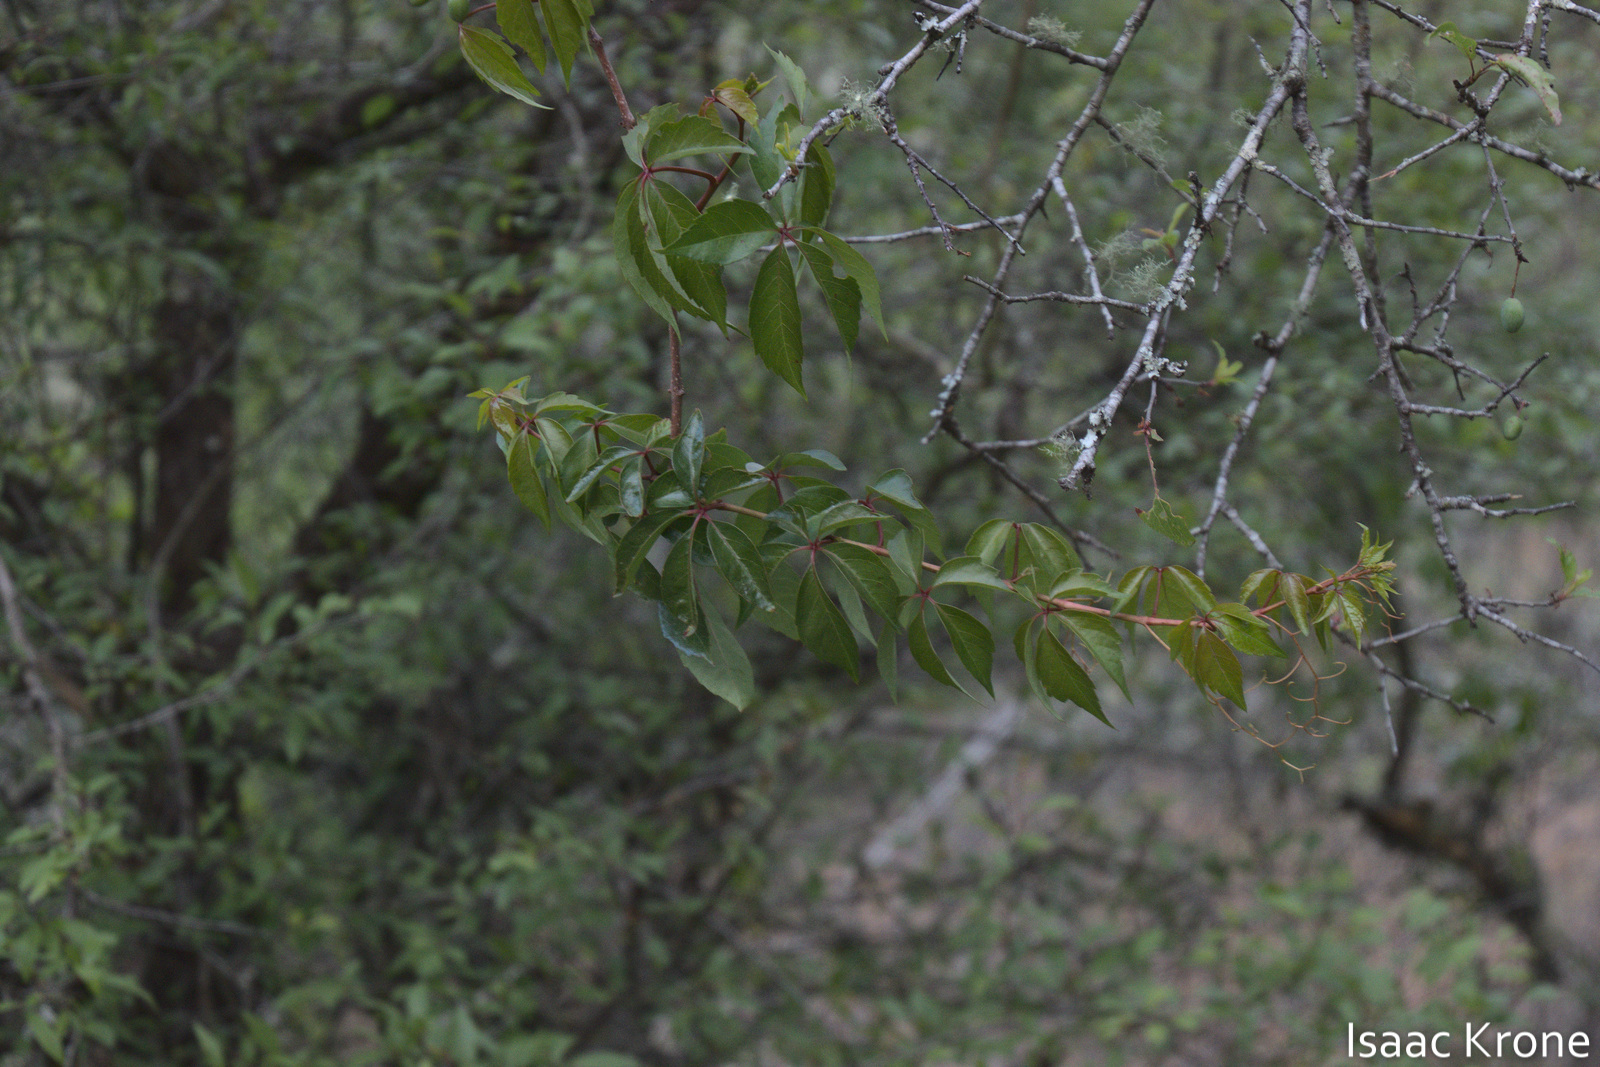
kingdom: Plantae
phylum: Tracheophyta
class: Magnoliopsida
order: Vitales
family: Vitaceae
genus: Parthenocissus
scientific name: Parthenocissus quinquefolia
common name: Virginia-creeper
